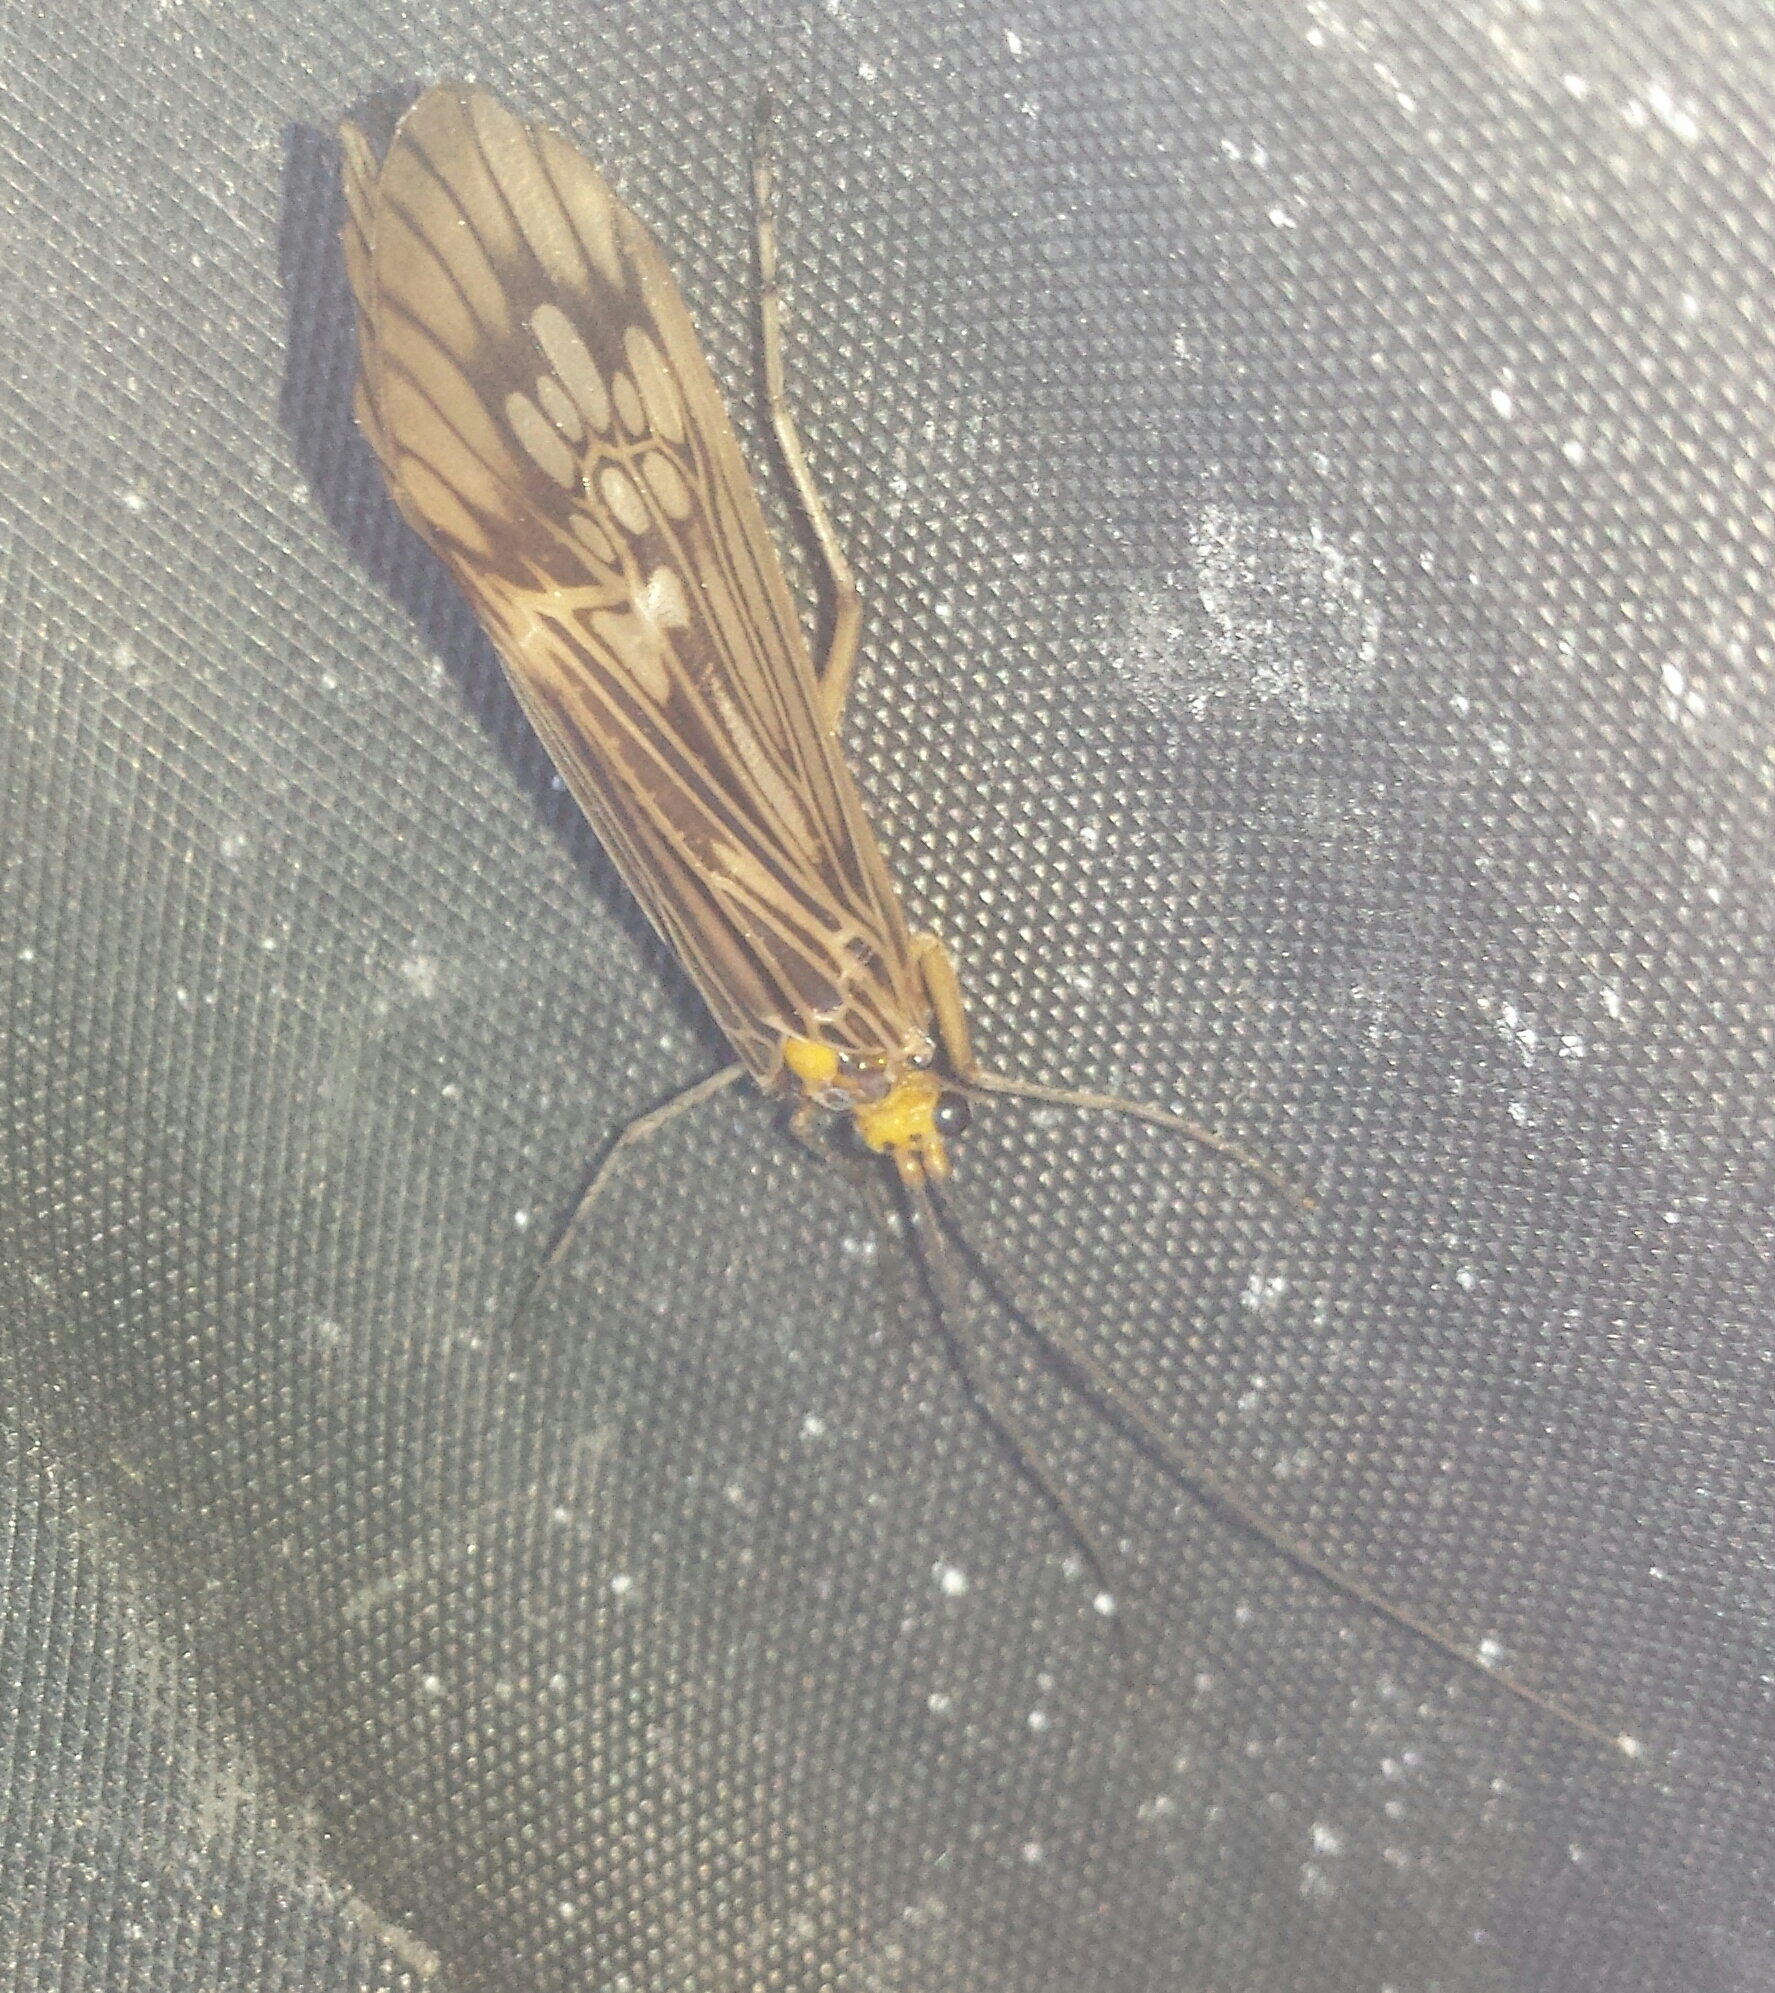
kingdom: Animalia
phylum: Arthropoda
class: Insecta
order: Trichoptera
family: Limnephilidae
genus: Hydatophylax
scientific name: Hydatophylax argus
